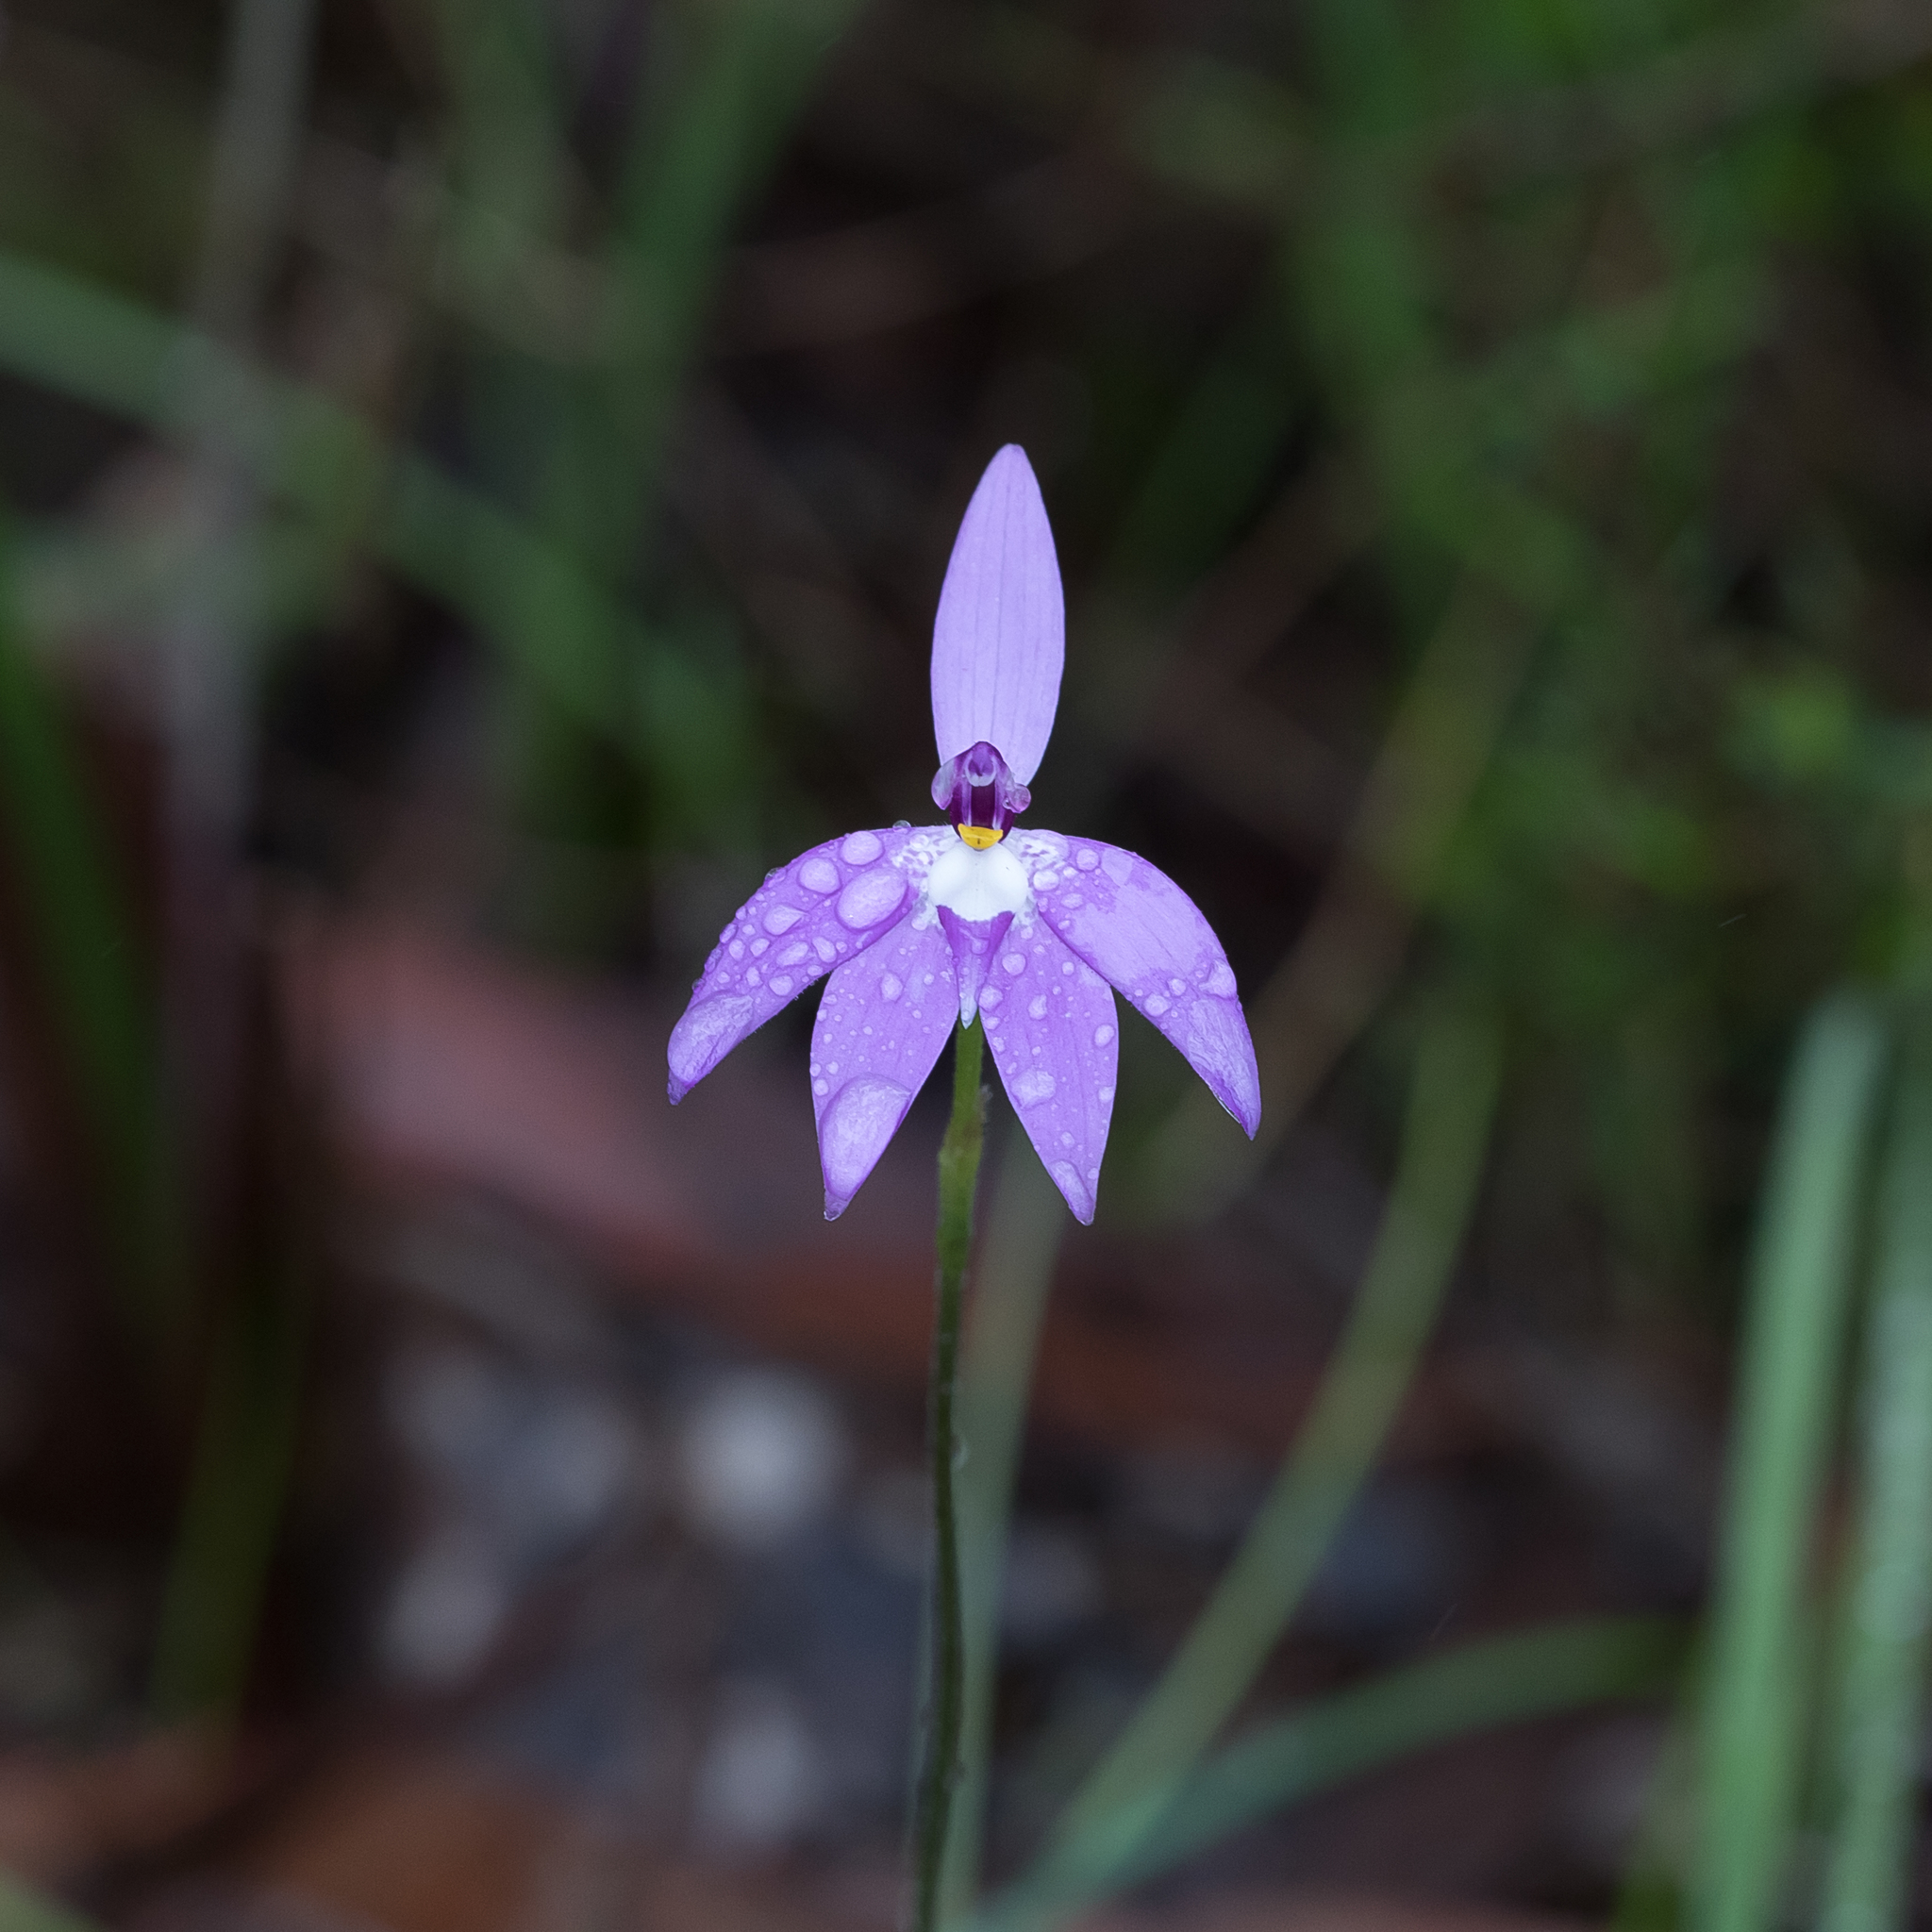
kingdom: Plantae
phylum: Tracheophyta
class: Liliopsida
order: Asparagales
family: Orchidaceae
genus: Caladenia
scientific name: Caladenia major
